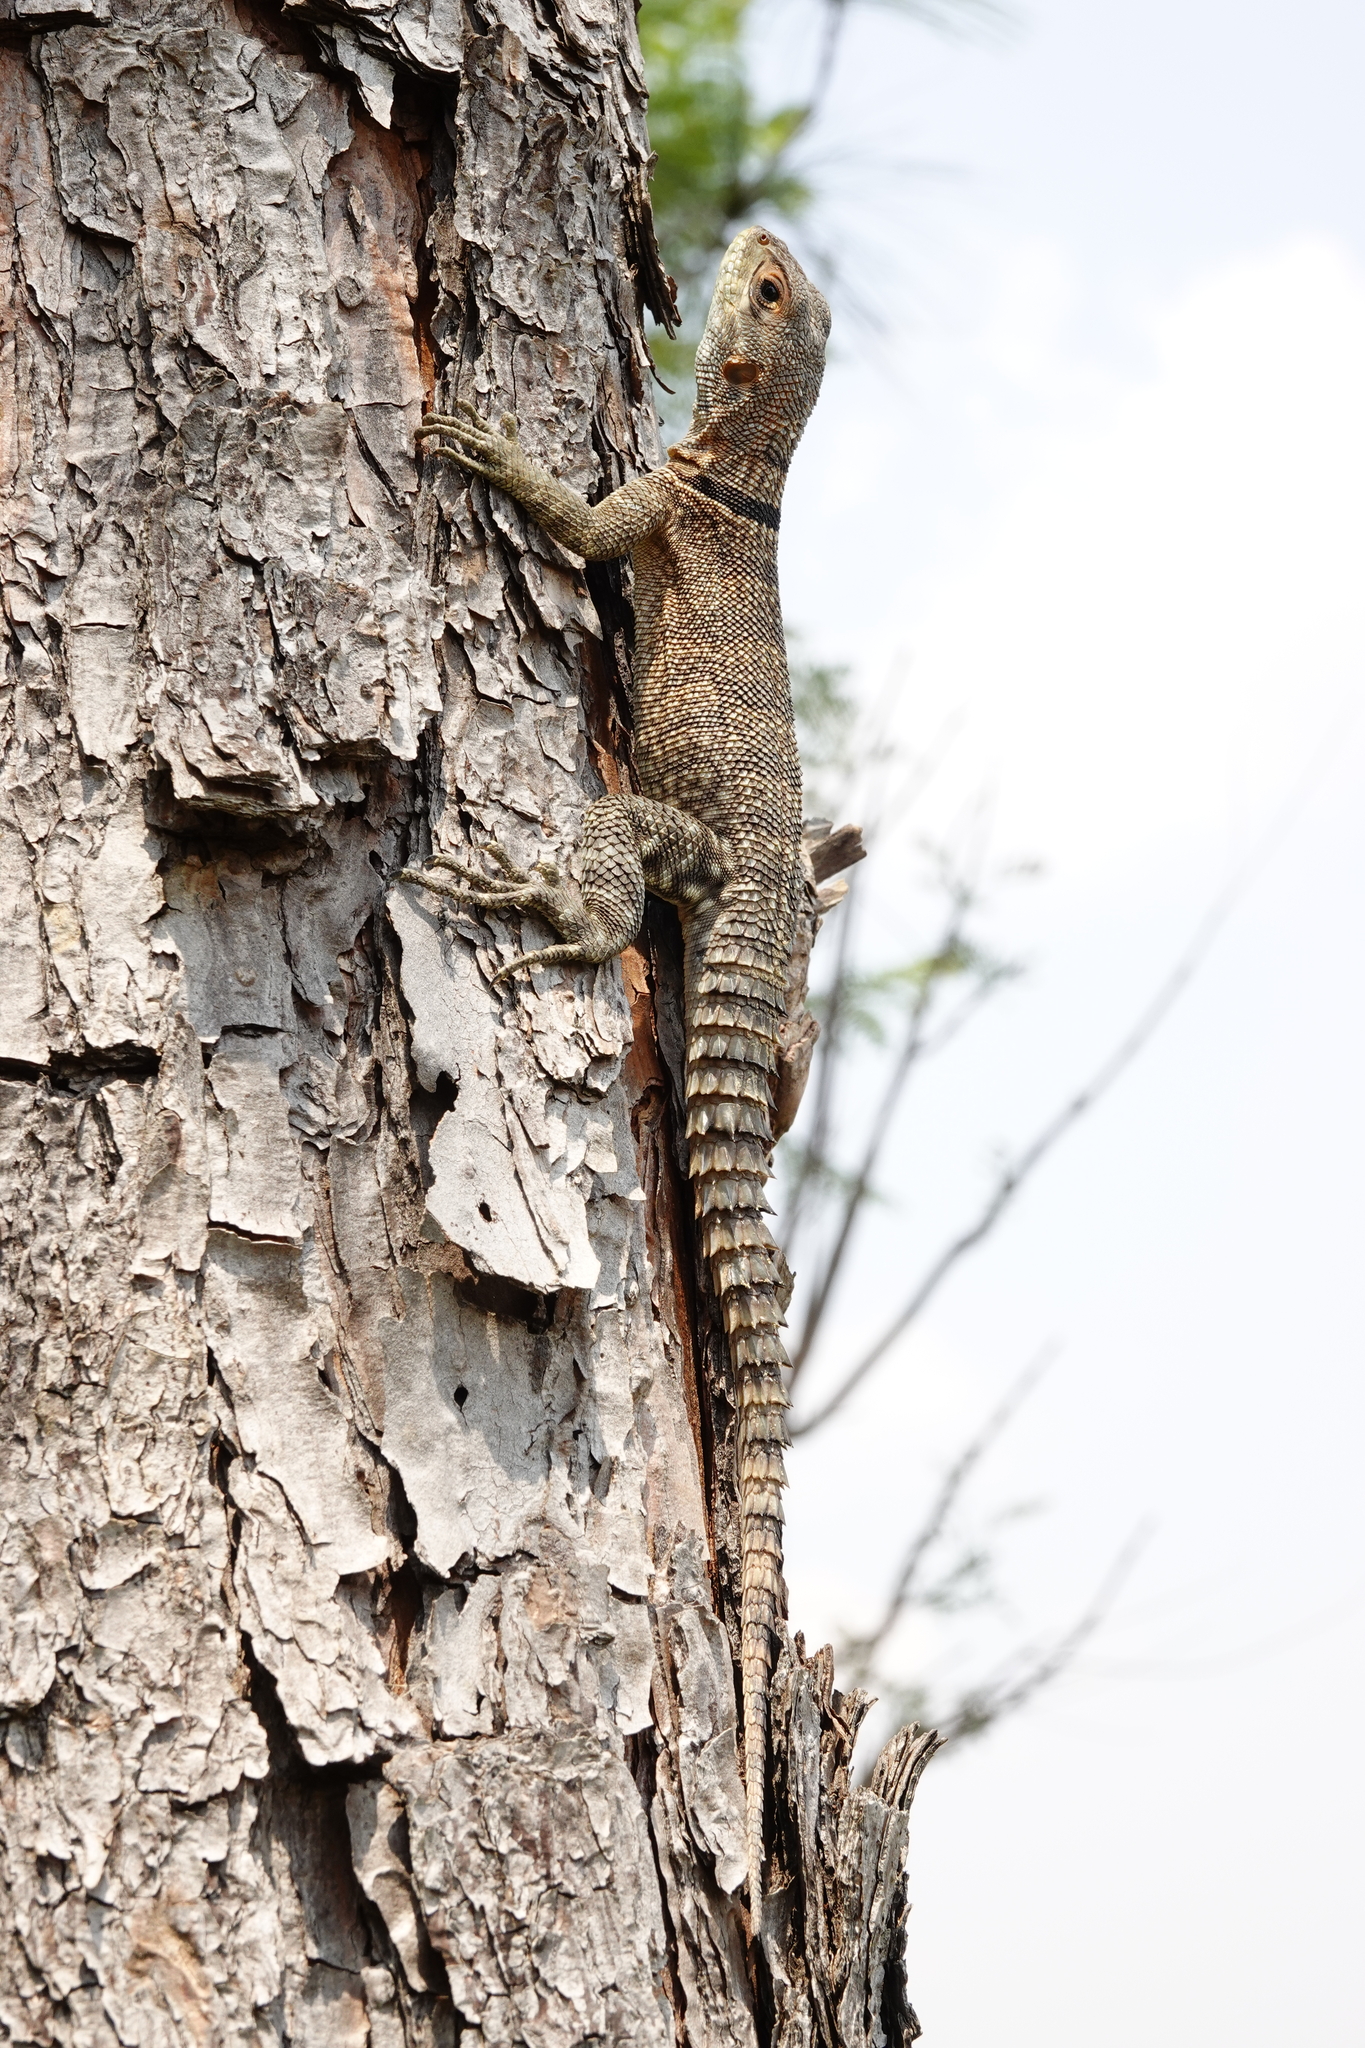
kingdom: Animalia
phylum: Chordata
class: Squamata
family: Opluridae
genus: Oplurus
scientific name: Oplurus cuvieri
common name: Cuvier's madagascar swift
